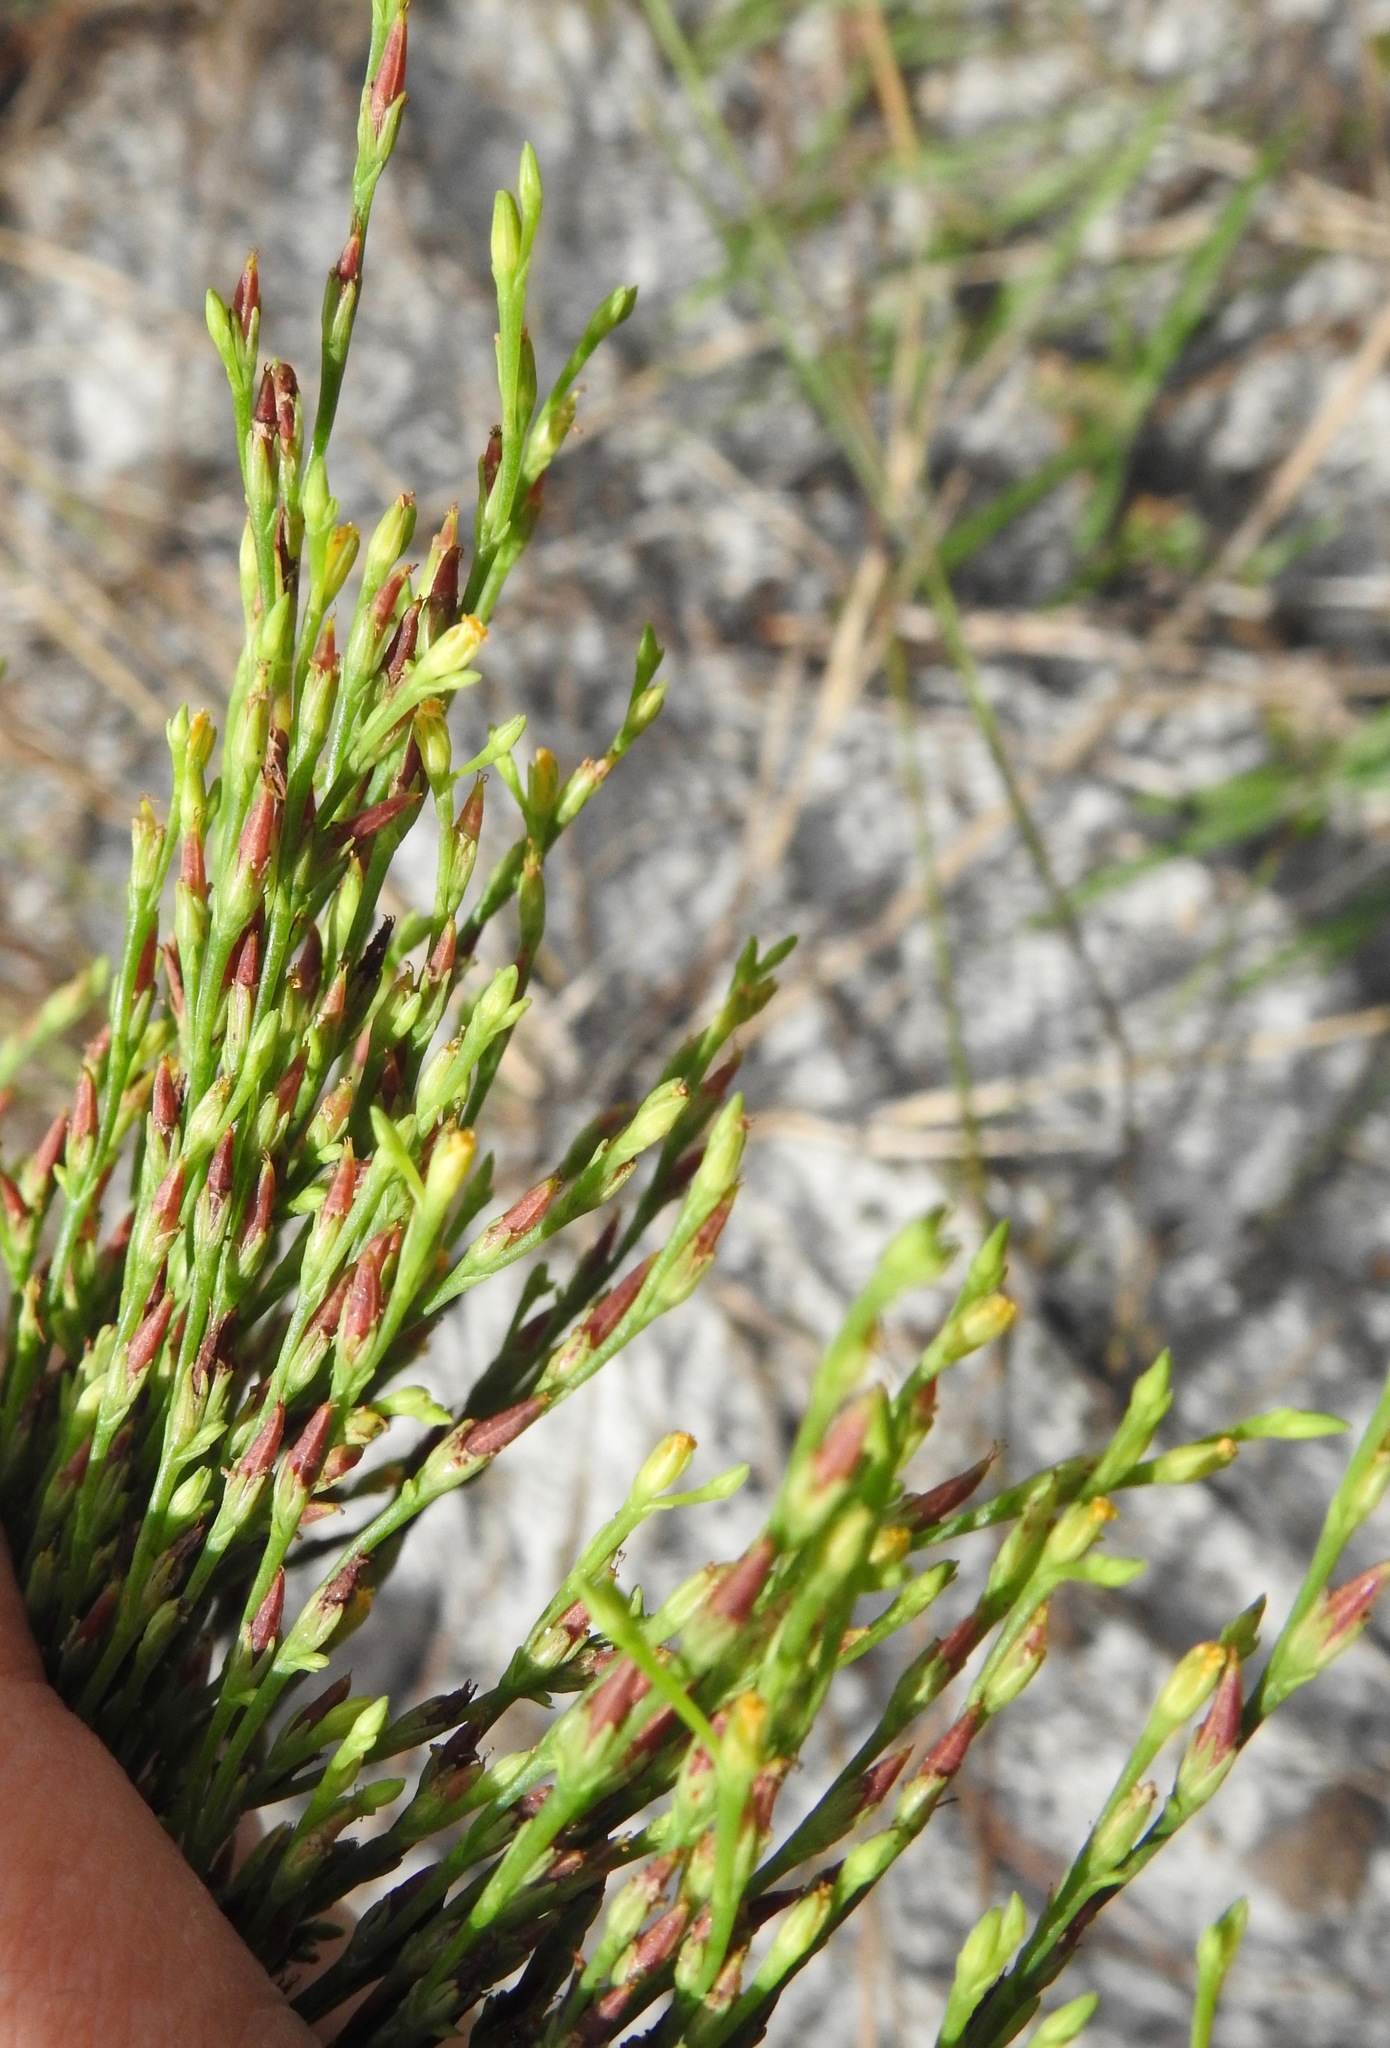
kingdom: Plantae
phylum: Tracheophyta
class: Magnoliopsida
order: Malpighiales
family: Hypericaceae
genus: Hypericum
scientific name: Hypericum gentianoides
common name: Gentian-leaved st. john's-wort
